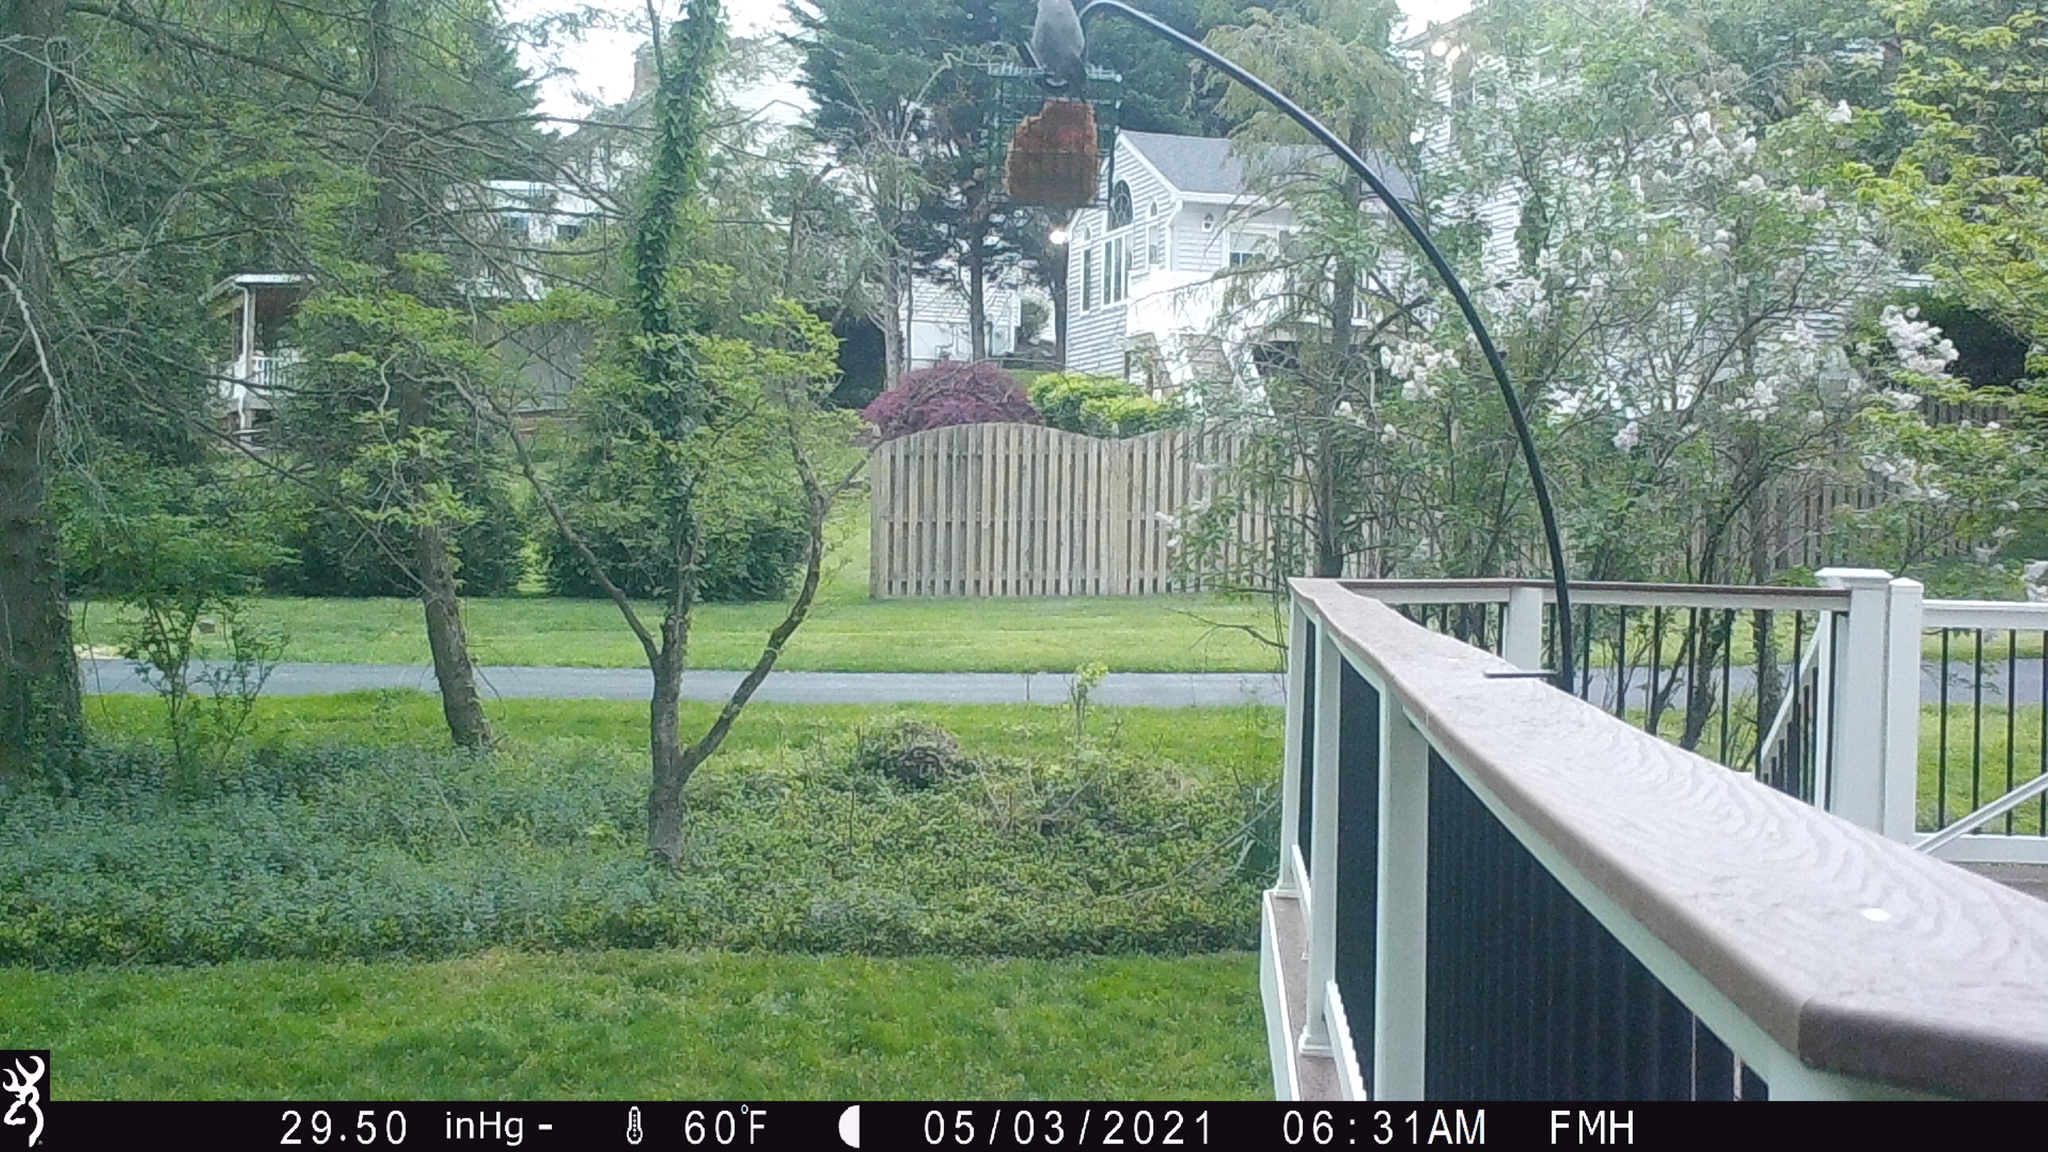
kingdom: Animalia
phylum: Chordata
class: Aves
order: Passeriformes
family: Mimidae
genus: Dumetella
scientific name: Dumetella carolinensis
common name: Gray catbird
